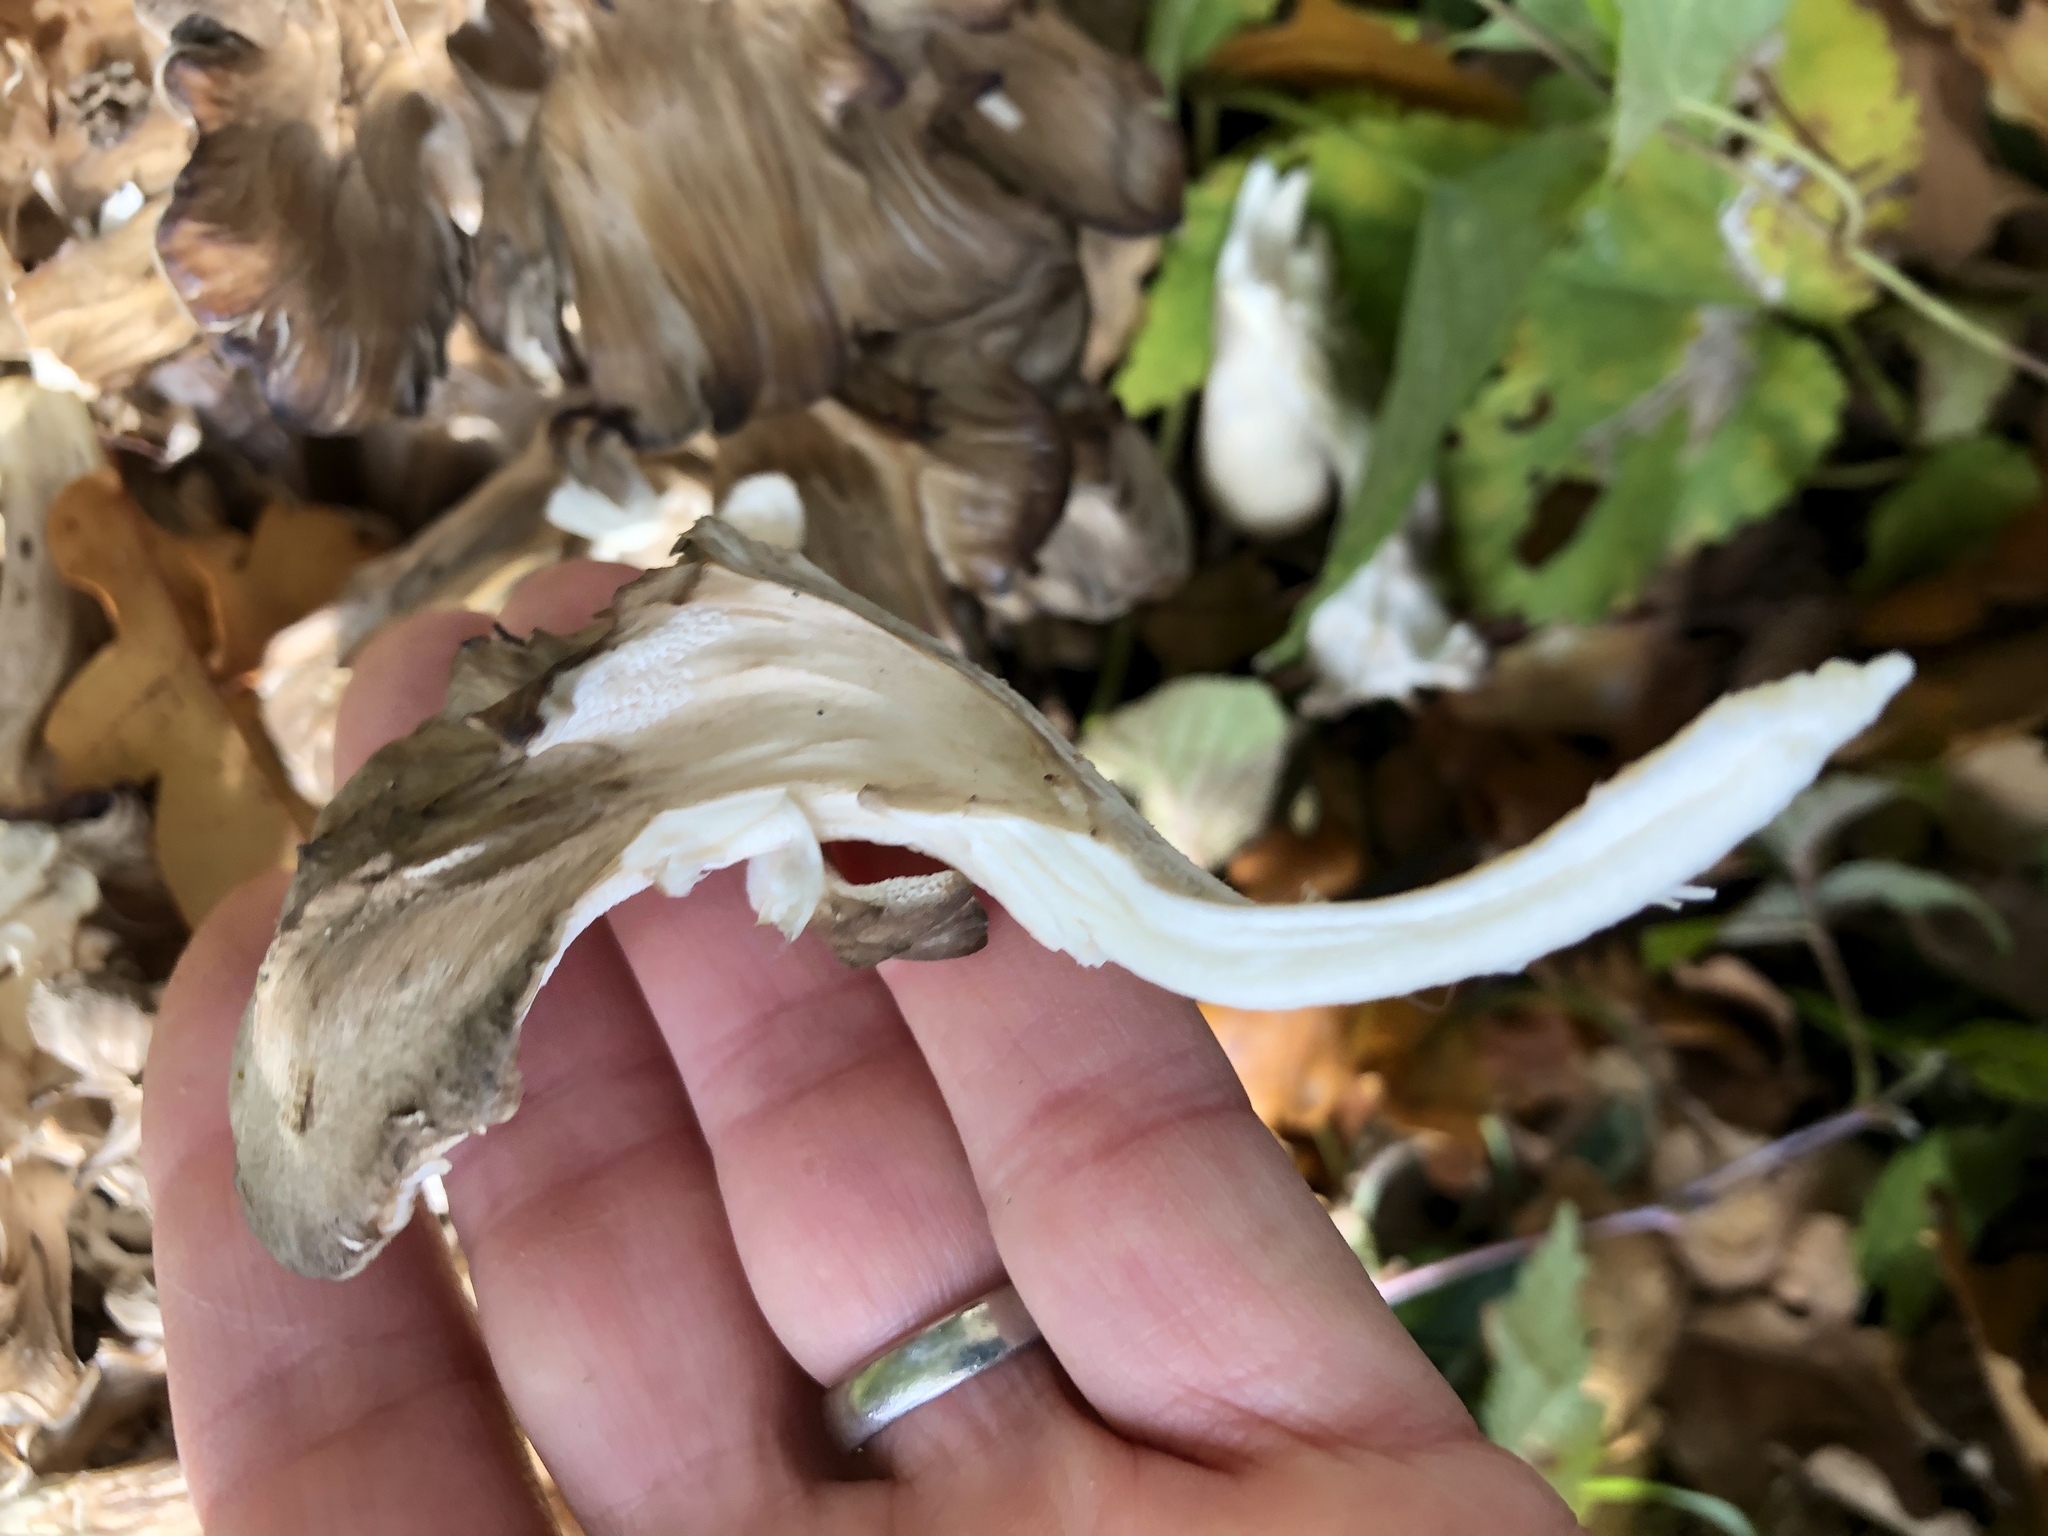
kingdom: Fungi
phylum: Basidiomycota
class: Agaricomycetes
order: Polyporales
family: Grifolaceae
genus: Grifola
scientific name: Grifola frondosa
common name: Hen of the woods
